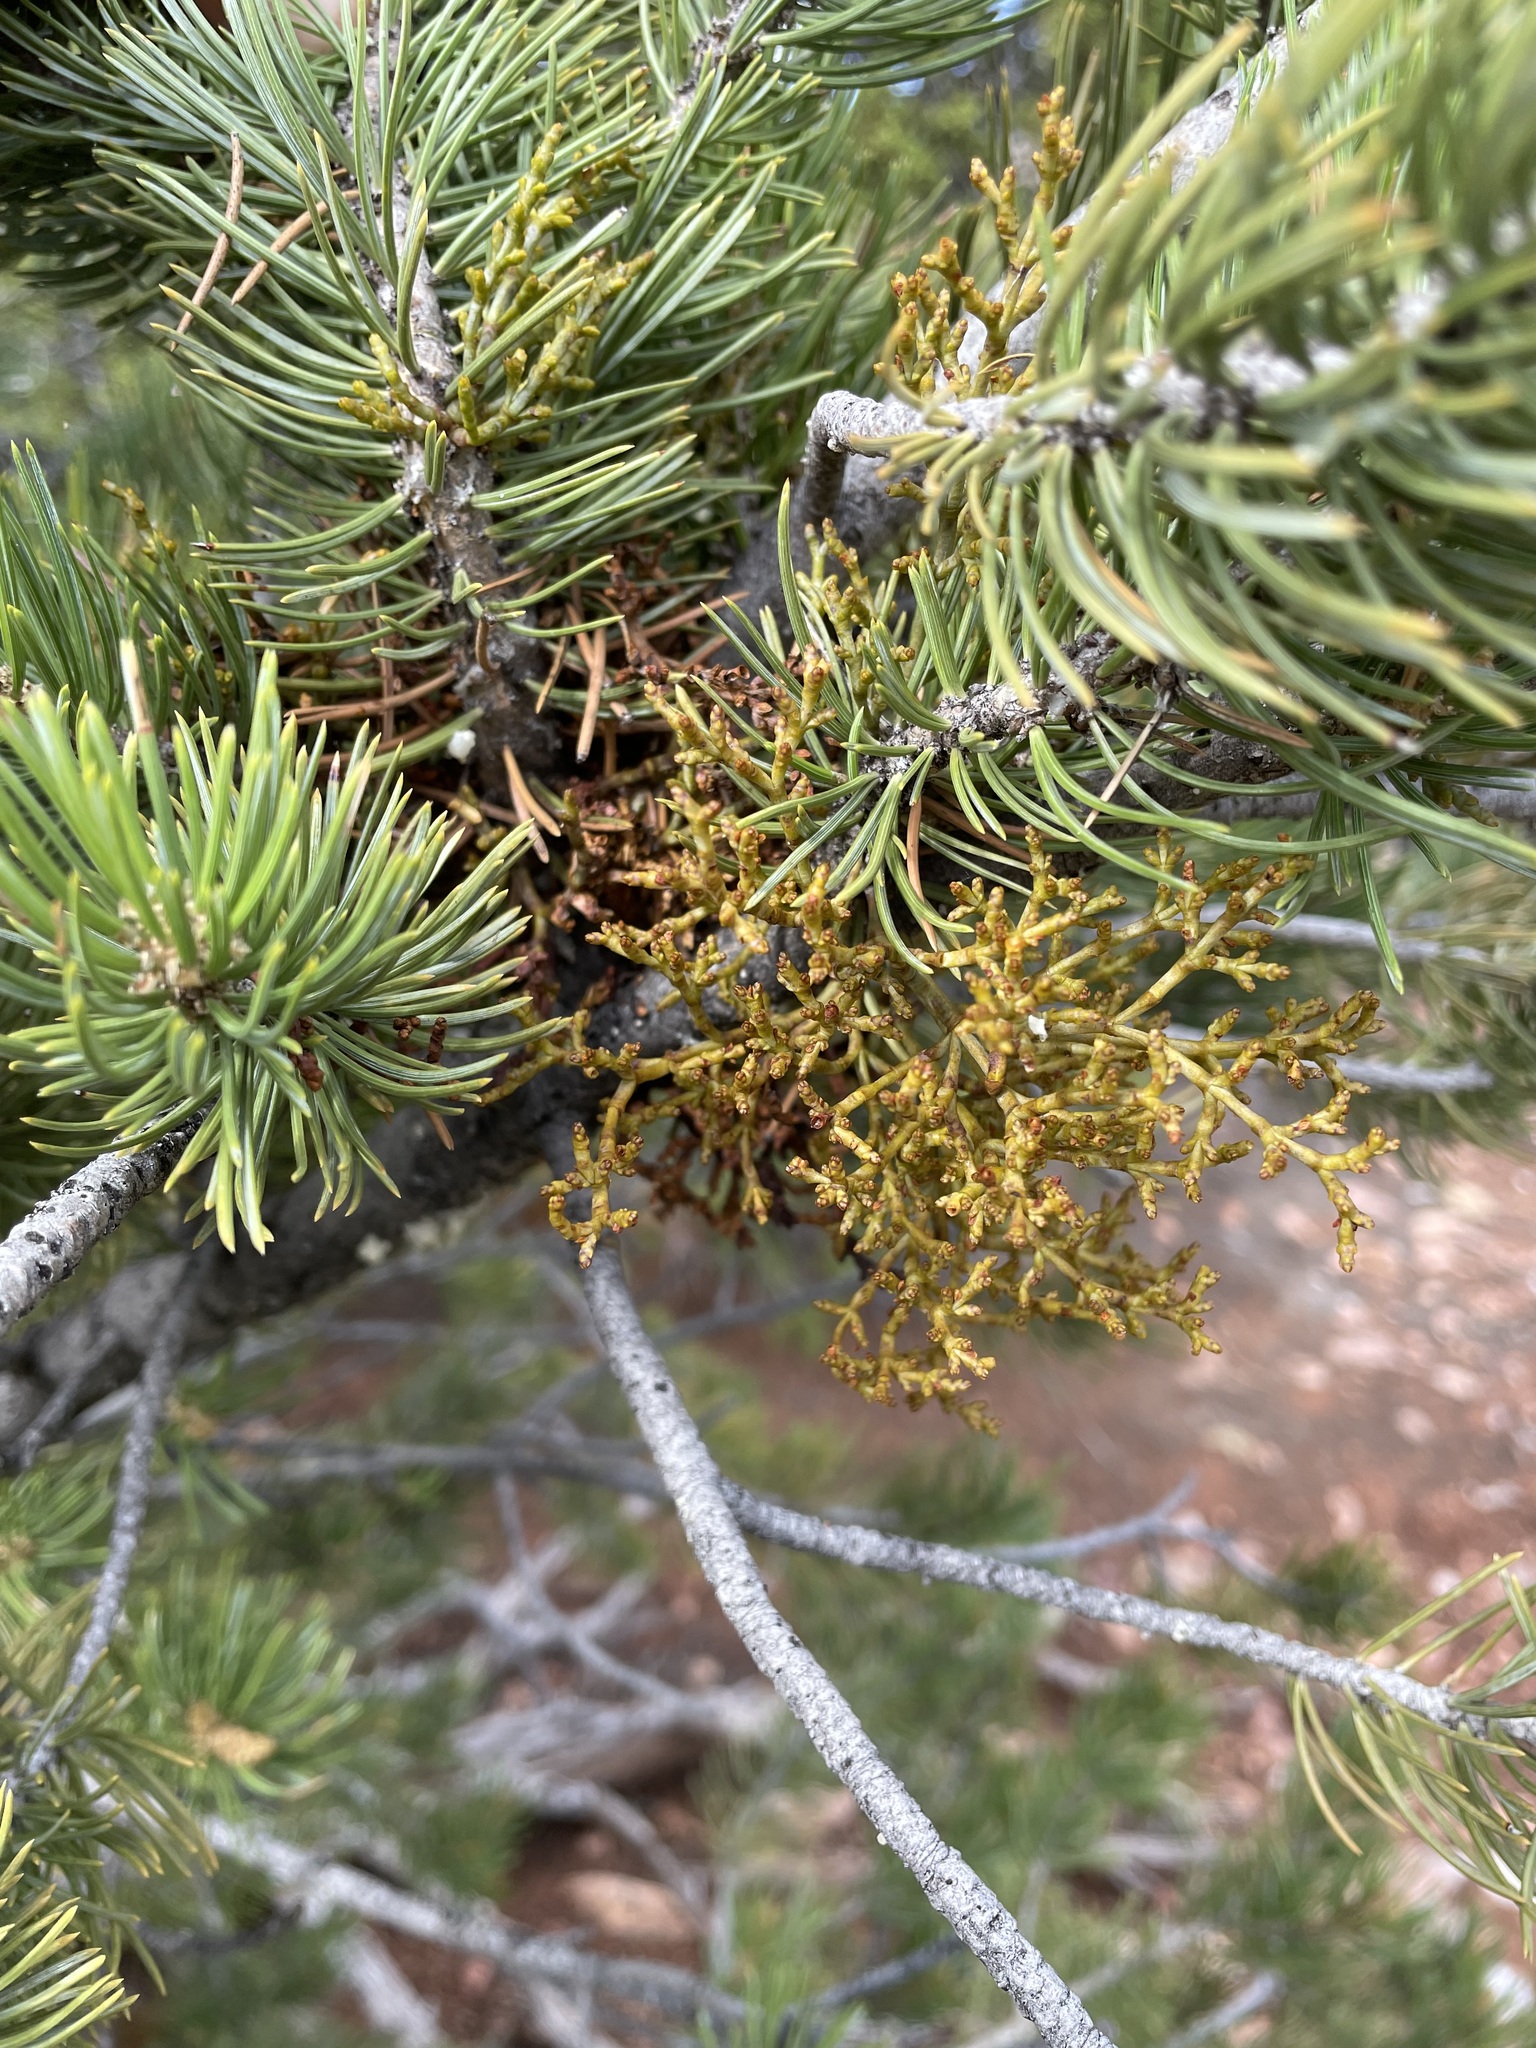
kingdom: Plantae
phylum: Tracheophyta
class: Magnoliopsida
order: Santalales
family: Viscaceae
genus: Arceuthobium
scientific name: Arceuthobium divaricatum
